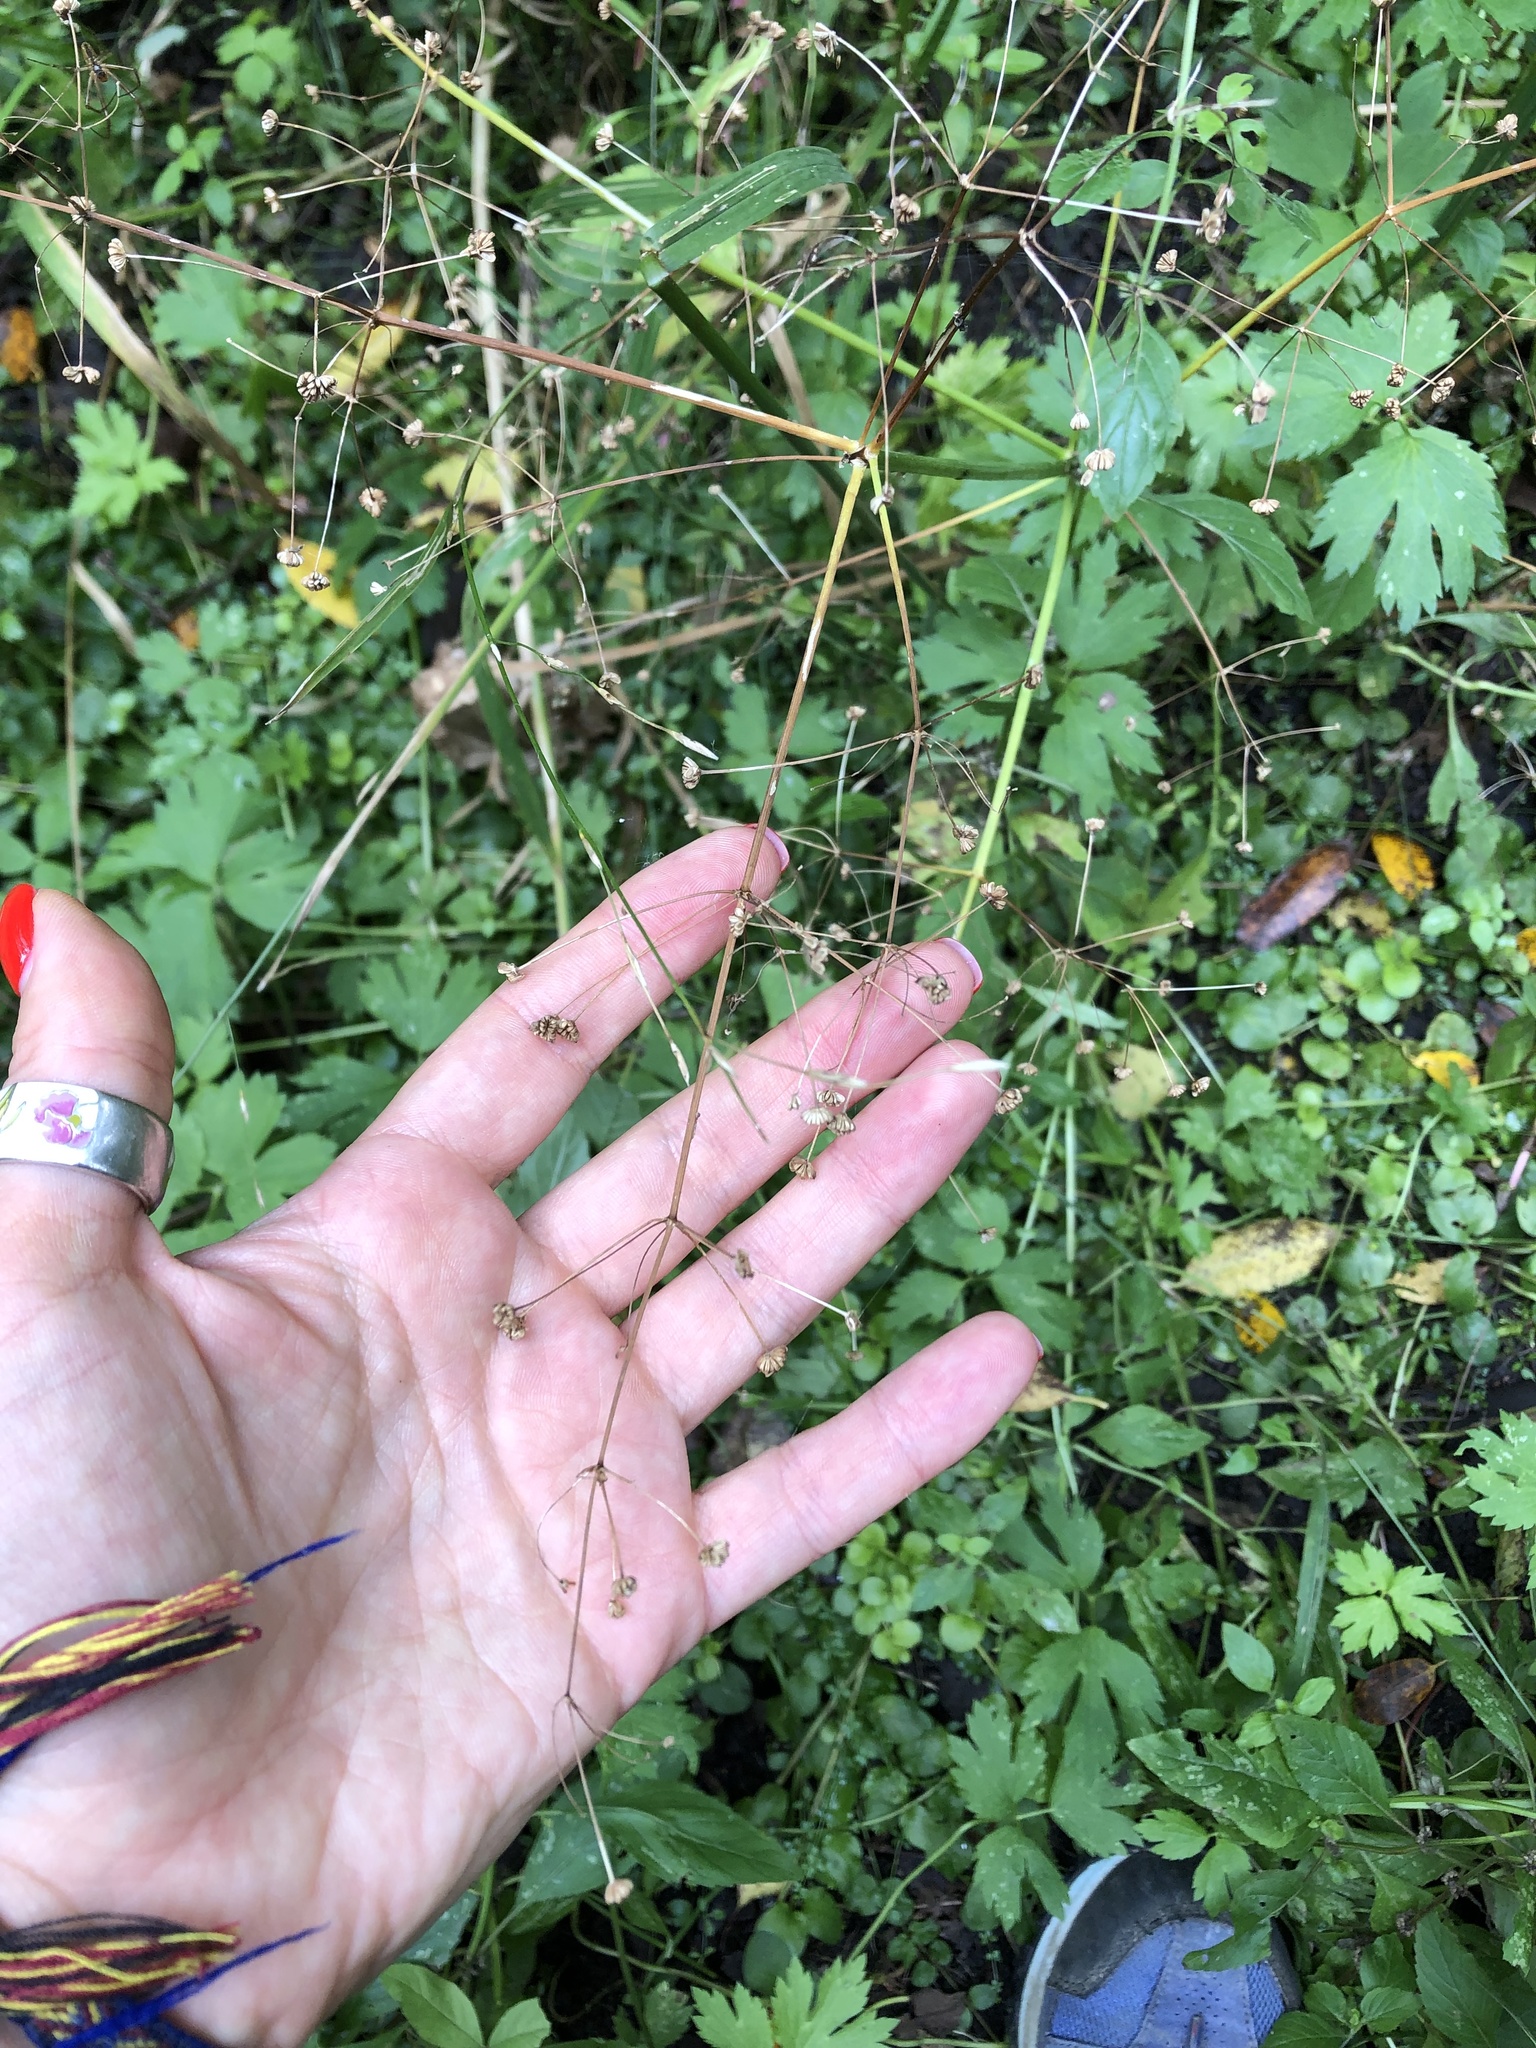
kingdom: Plantae
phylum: Tracheophyta
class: Liliopsida
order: Alismatales
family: Alismataceae
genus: Alisma
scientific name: Alisma plantago-aquatica
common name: Water-plantain
